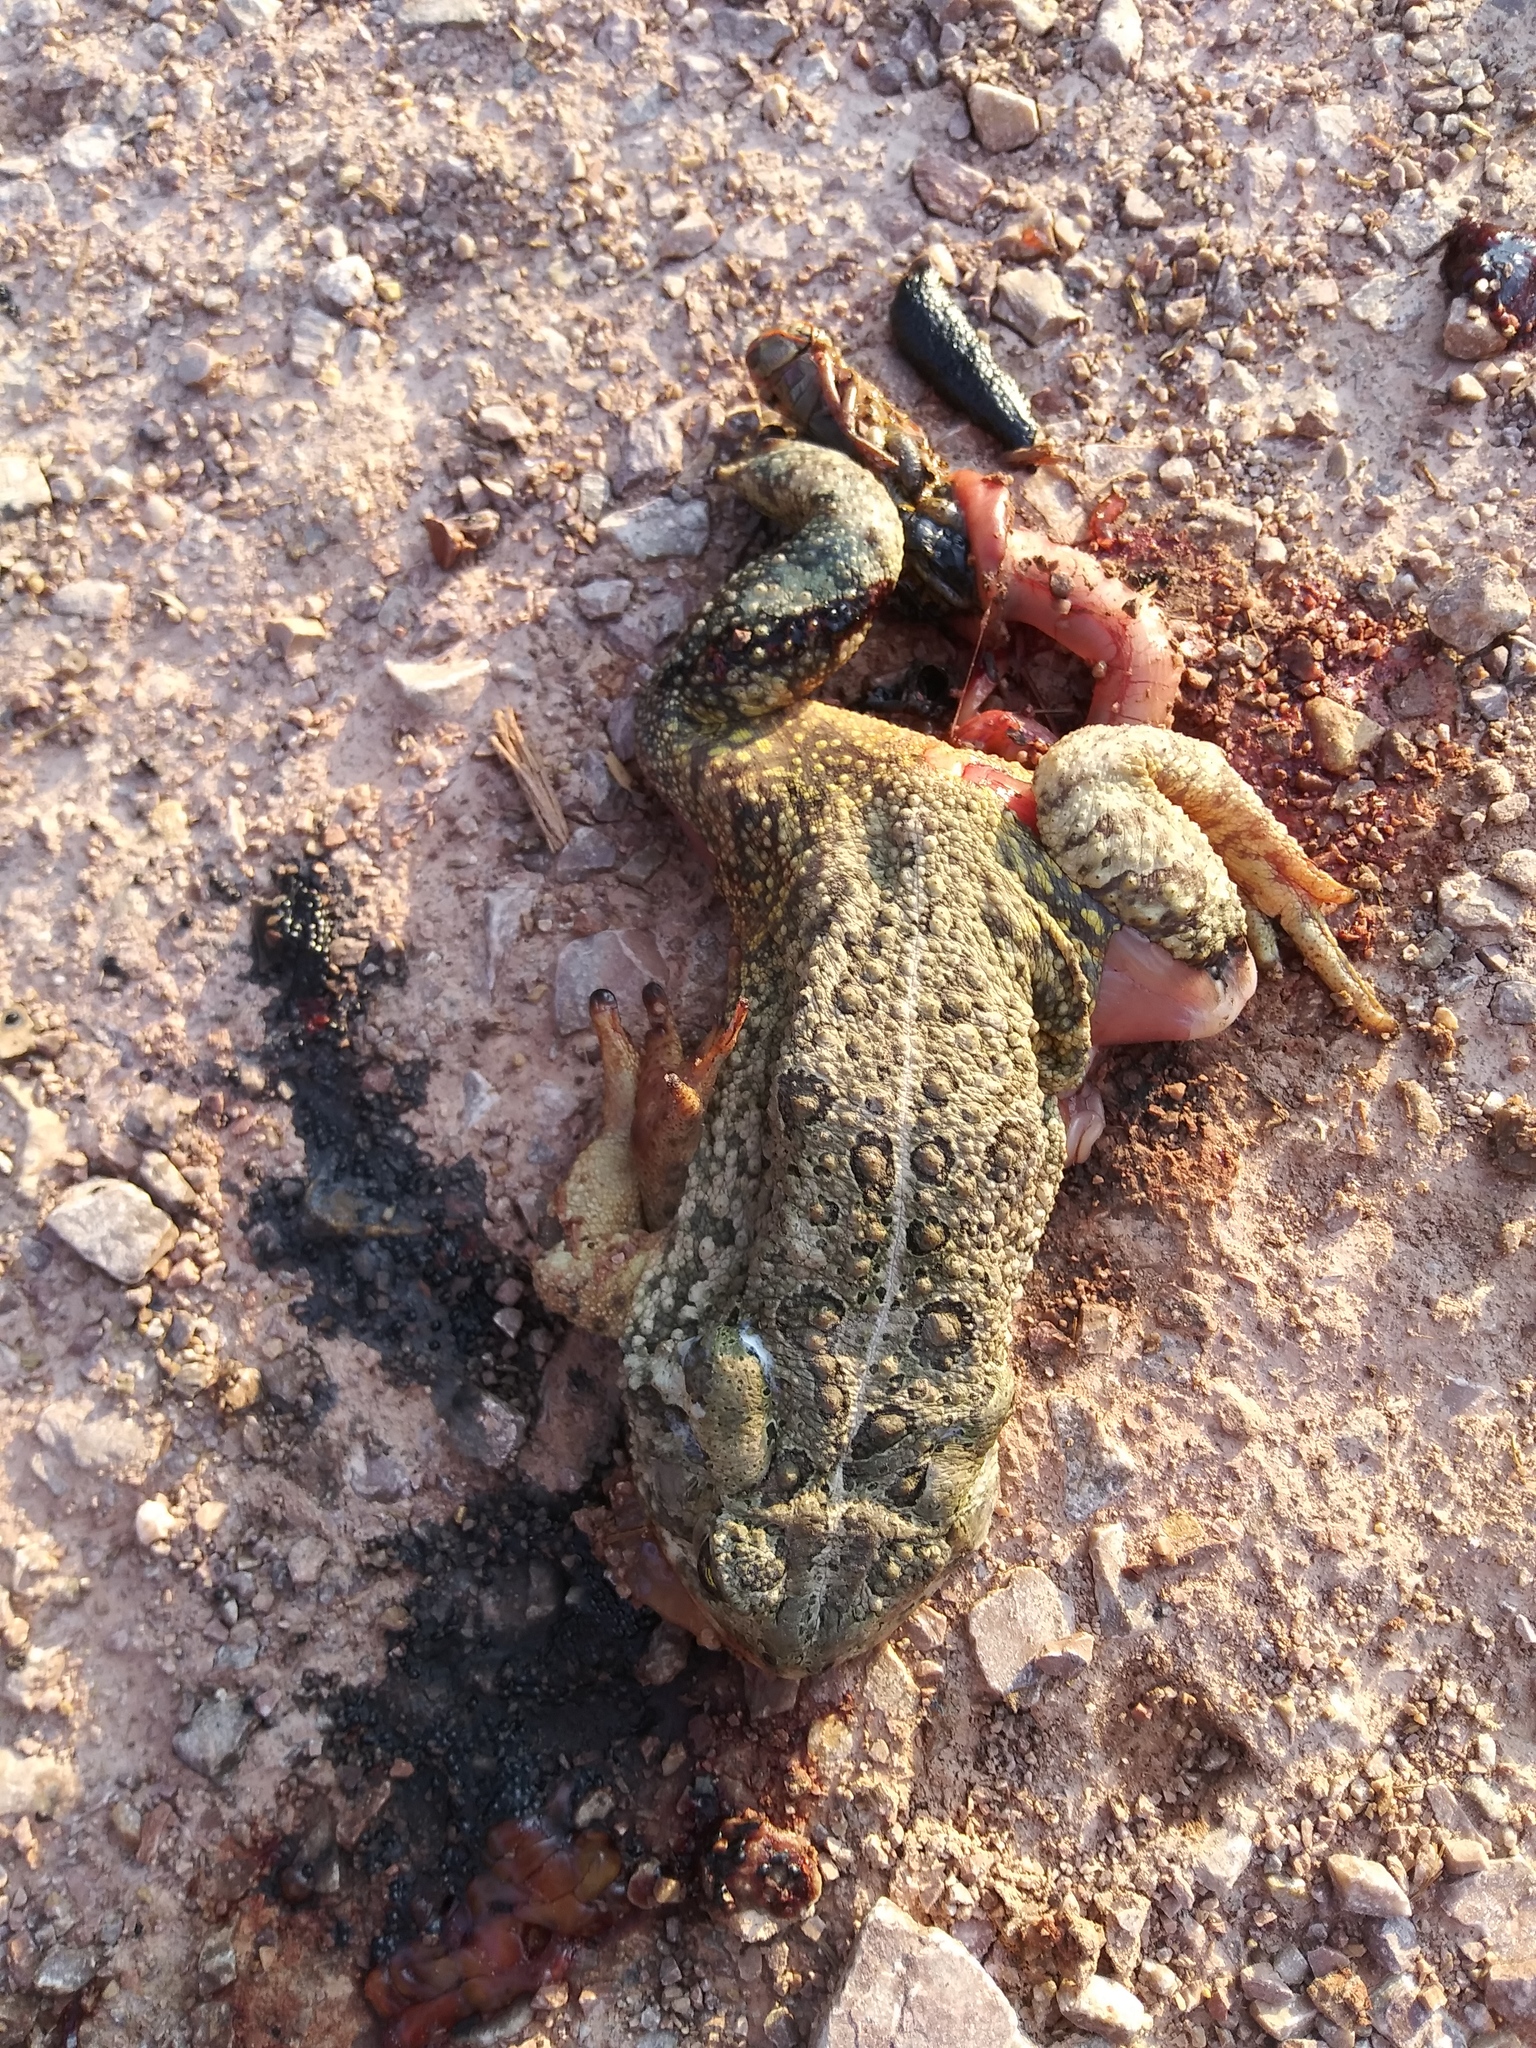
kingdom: Animalia
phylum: Chordata
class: Amphibia
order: Anura
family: Bufonidae
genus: Anaxyrus
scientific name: Anaxyrus woodhousii
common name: Woodhouse's toad
